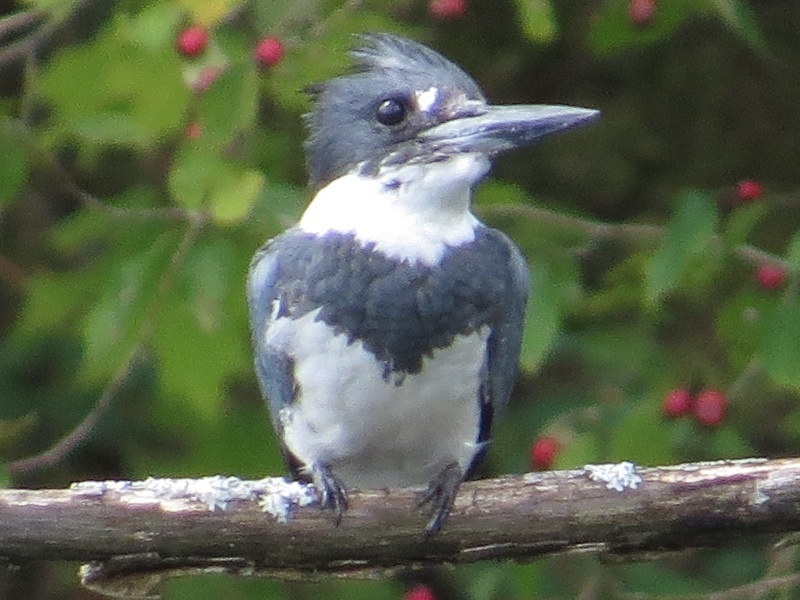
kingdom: Animalia
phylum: Chordata
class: Aves
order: Coraciiformes
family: Alcedinidae
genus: Megaceryle
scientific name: Megaceryle alcyon
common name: Belted kingfisher
